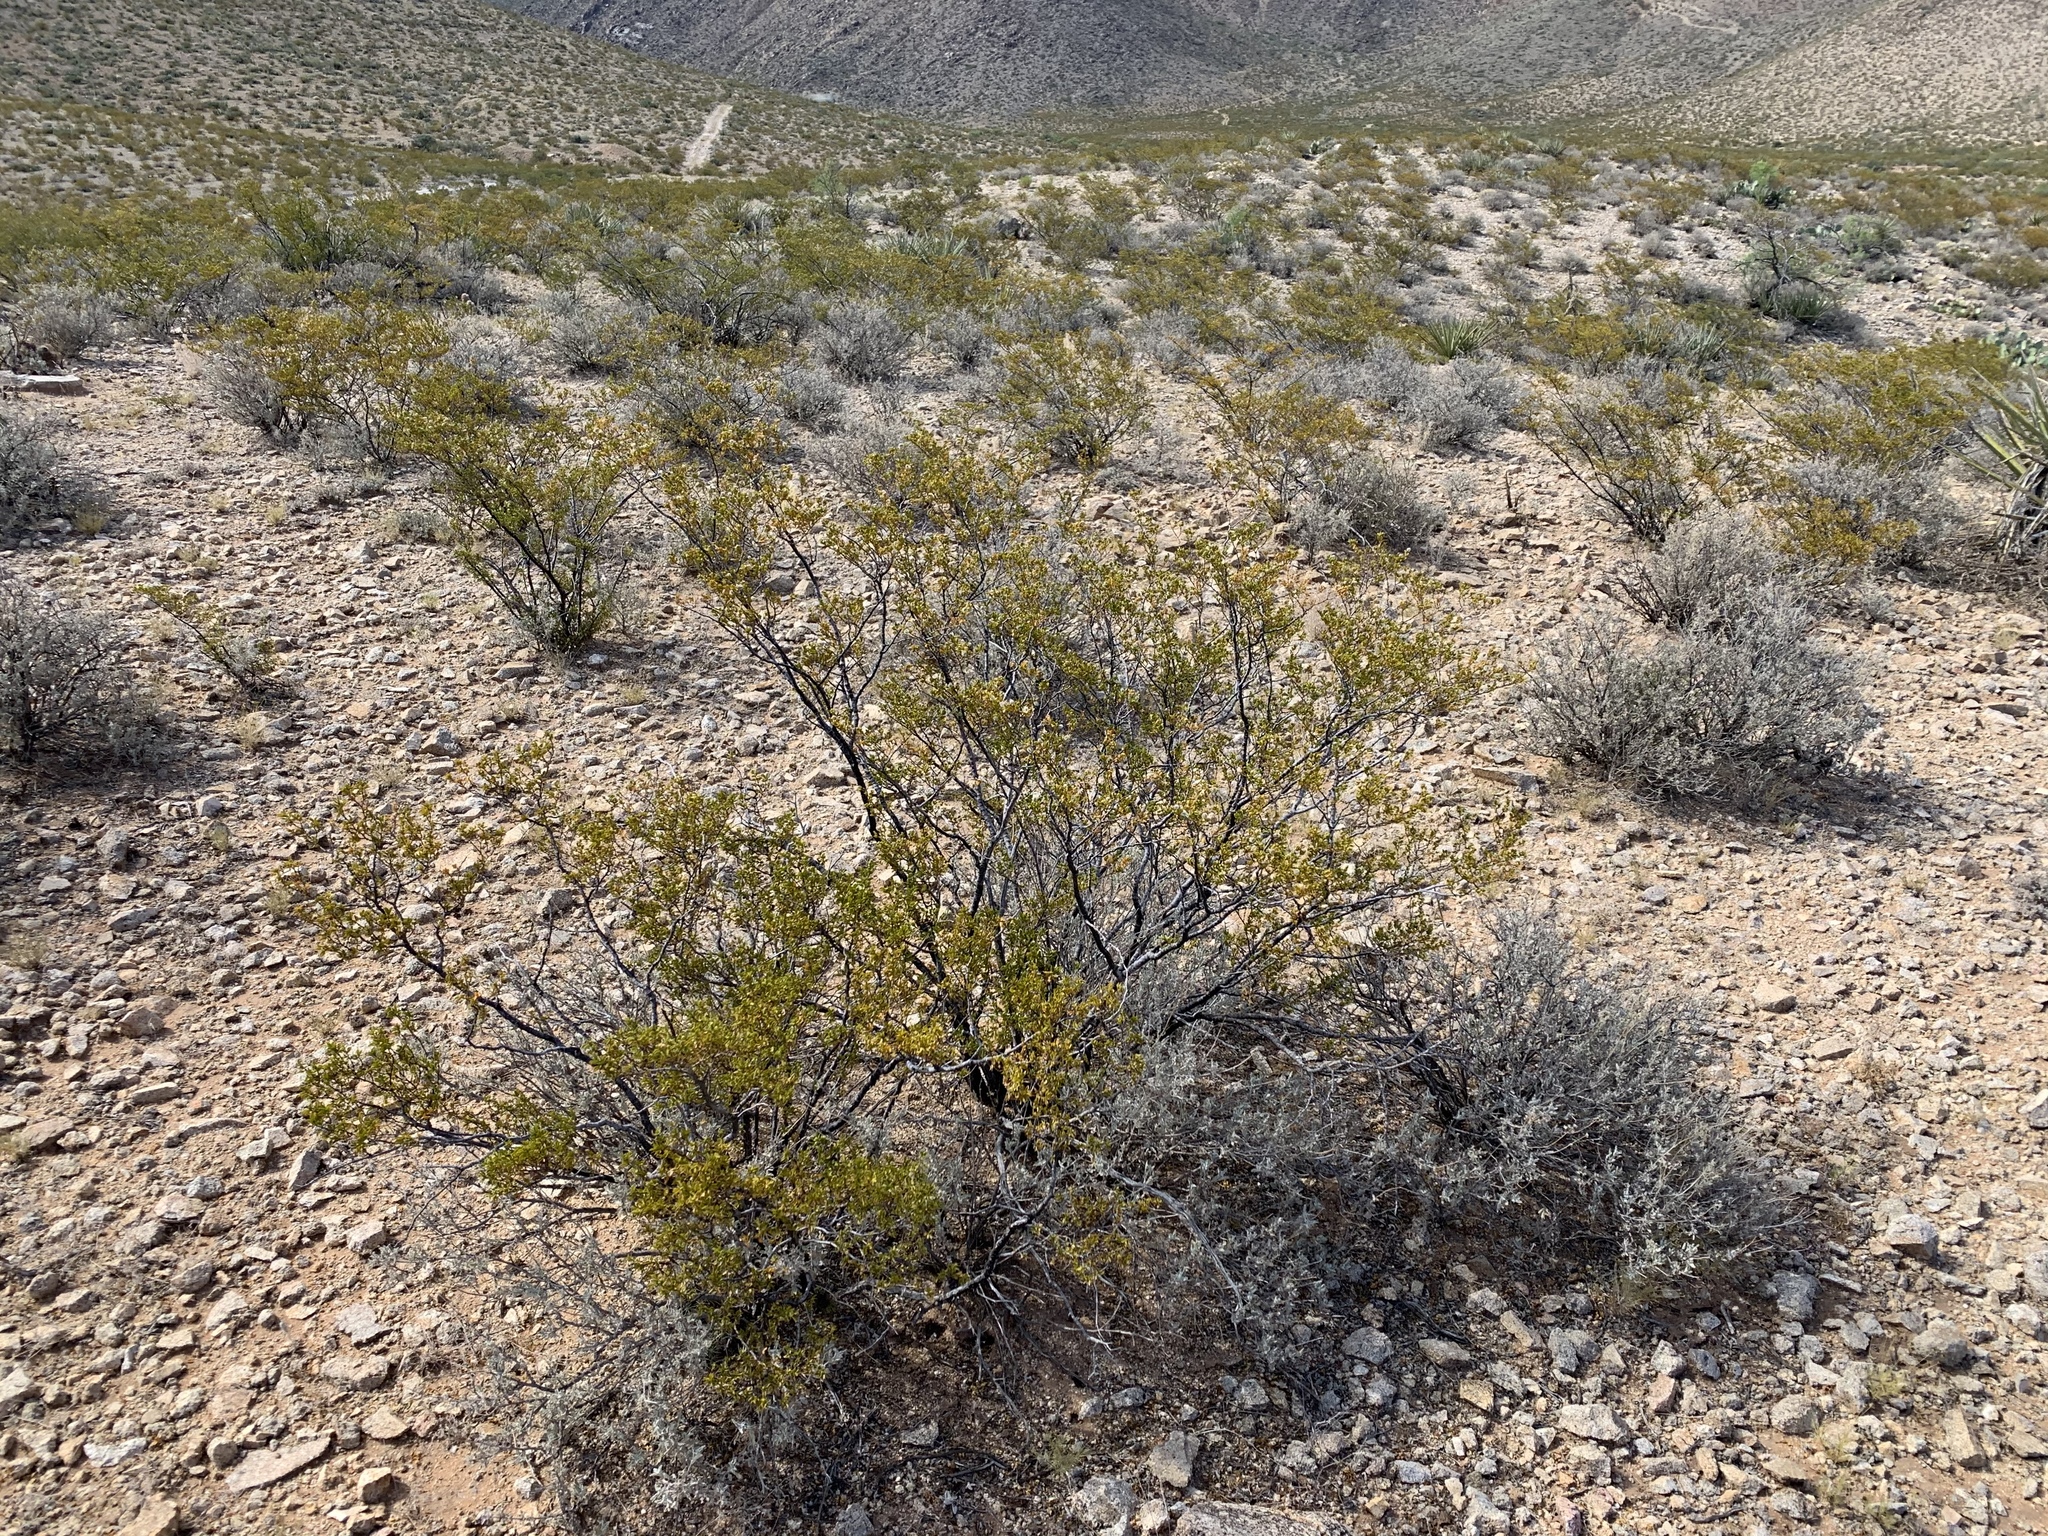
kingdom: Plantae
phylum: Tracheophyta
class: Magnoliopsida
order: Zygophyllales
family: Zygophyllaceae
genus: Larrea
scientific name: Larrea tridentata
